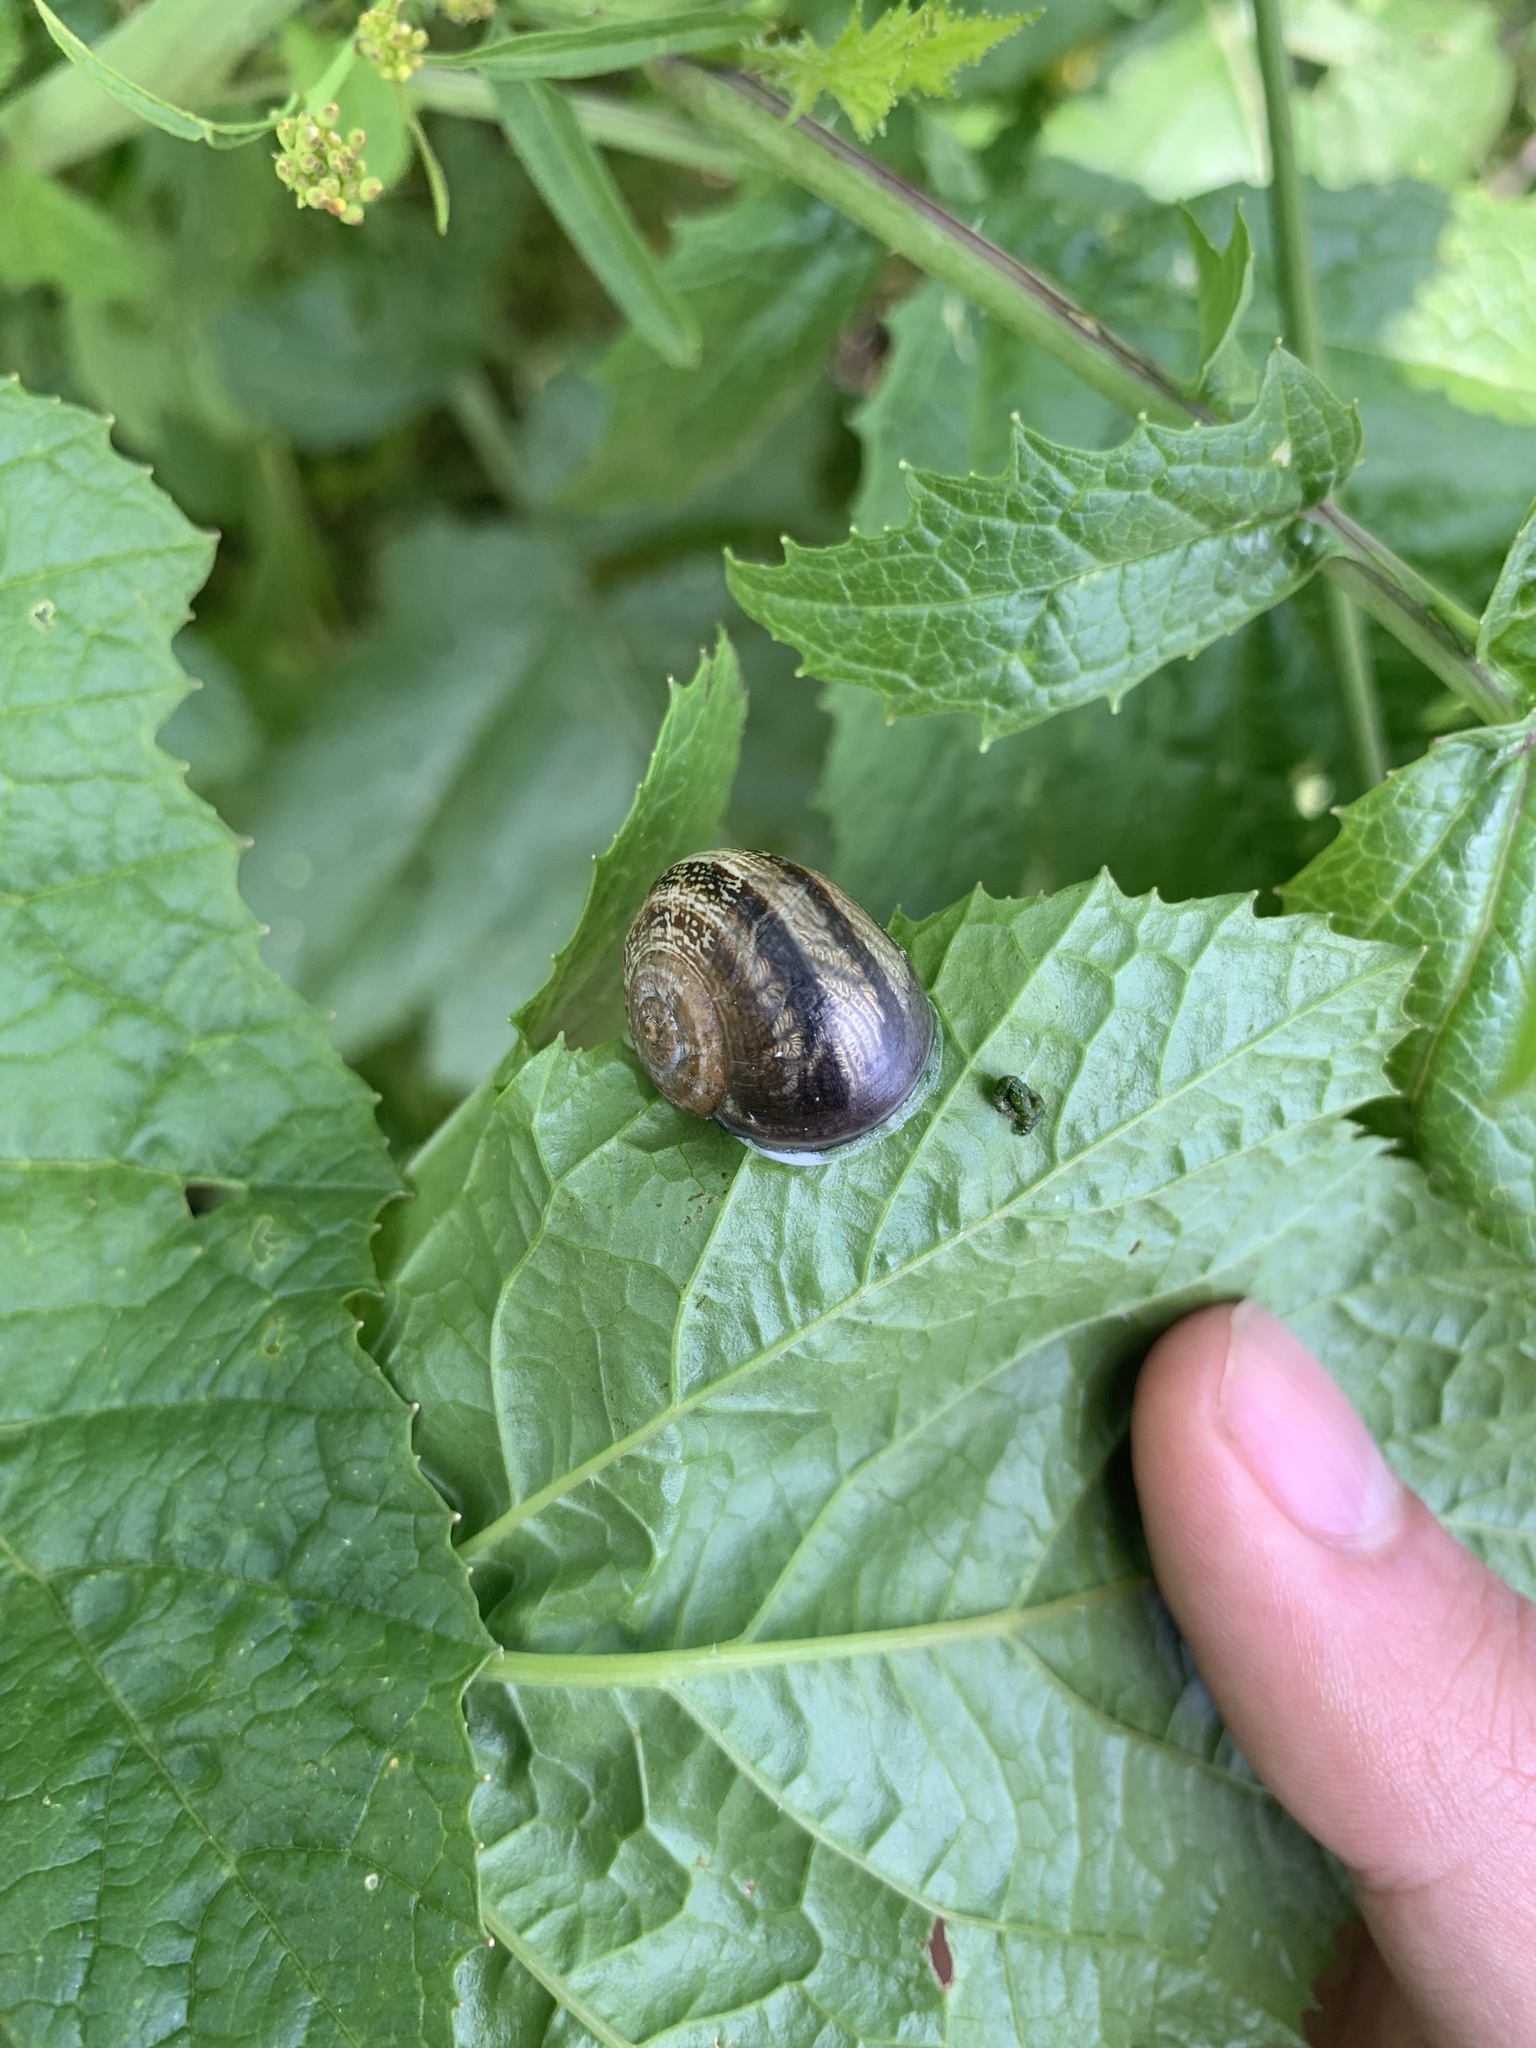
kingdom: Animalia
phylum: Mollusca
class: Gastropoda
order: Stylommatophora
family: Helicidae
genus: Otala
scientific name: Otala lactea
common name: Milk snail
